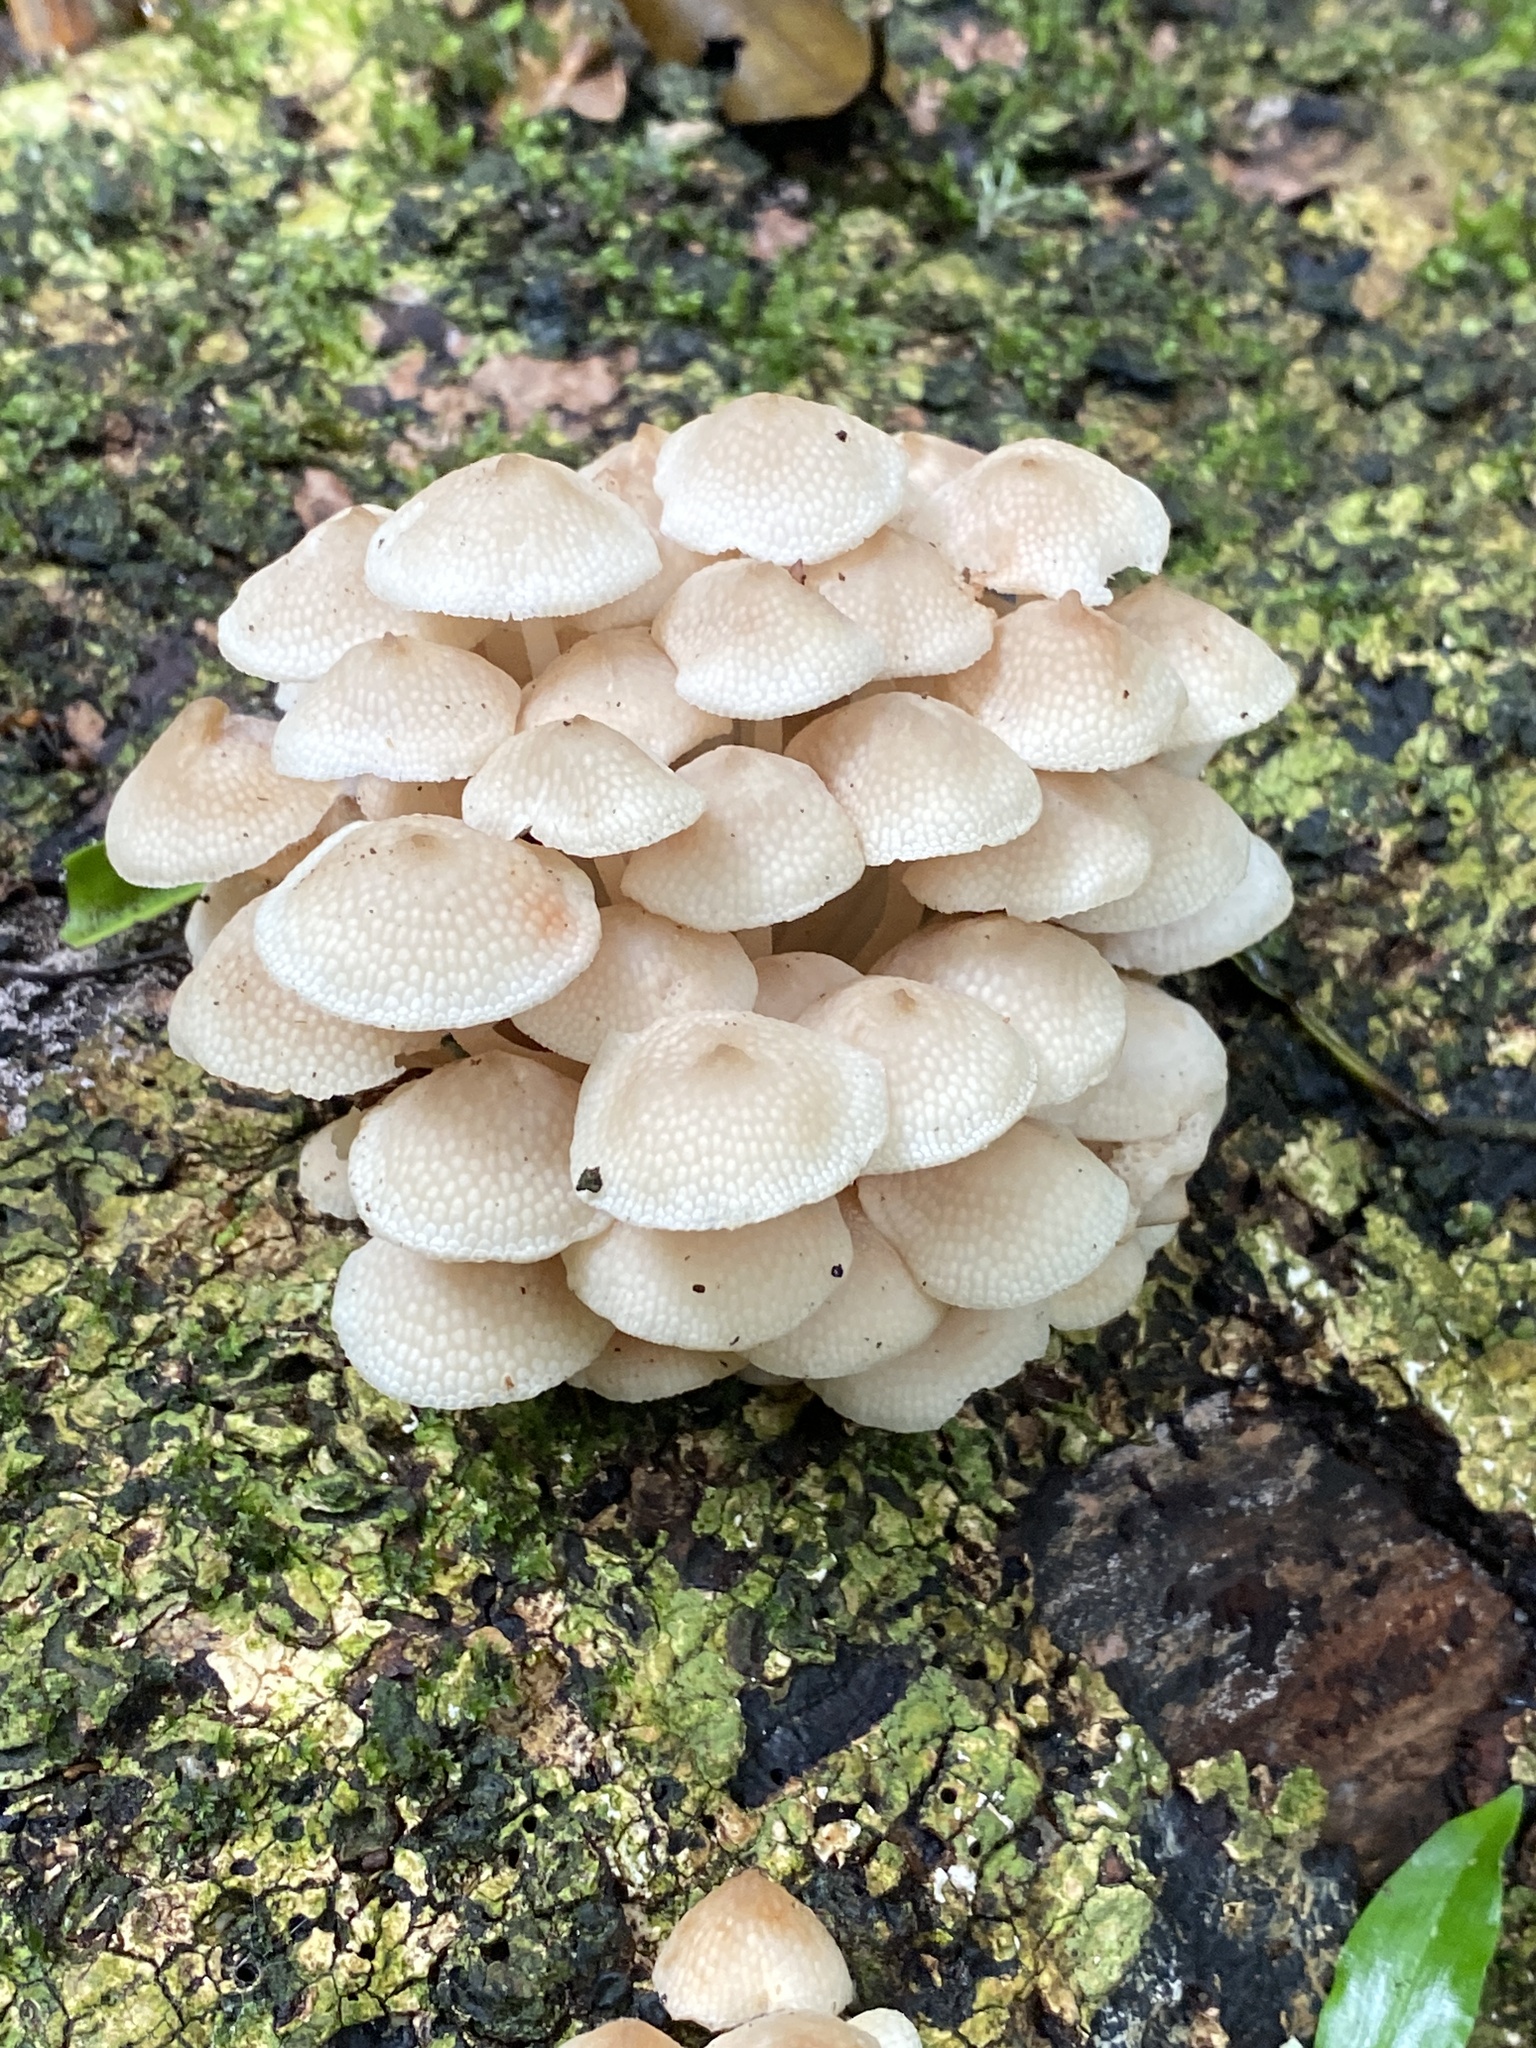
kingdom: Fungi
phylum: Basidiomycota
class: Agaricomycetes
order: Agaricales
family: Mycenaceae
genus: Filoboletus
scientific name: Filoboletus manipularis
